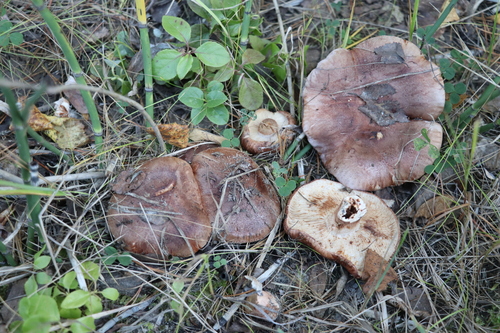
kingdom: Fungi
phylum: Basidiomycota
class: Agaricomycetes
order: Agaricales
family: Tricholomataceae
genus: Tricholoma
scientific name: Tricholoma stans
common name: Upright knight
